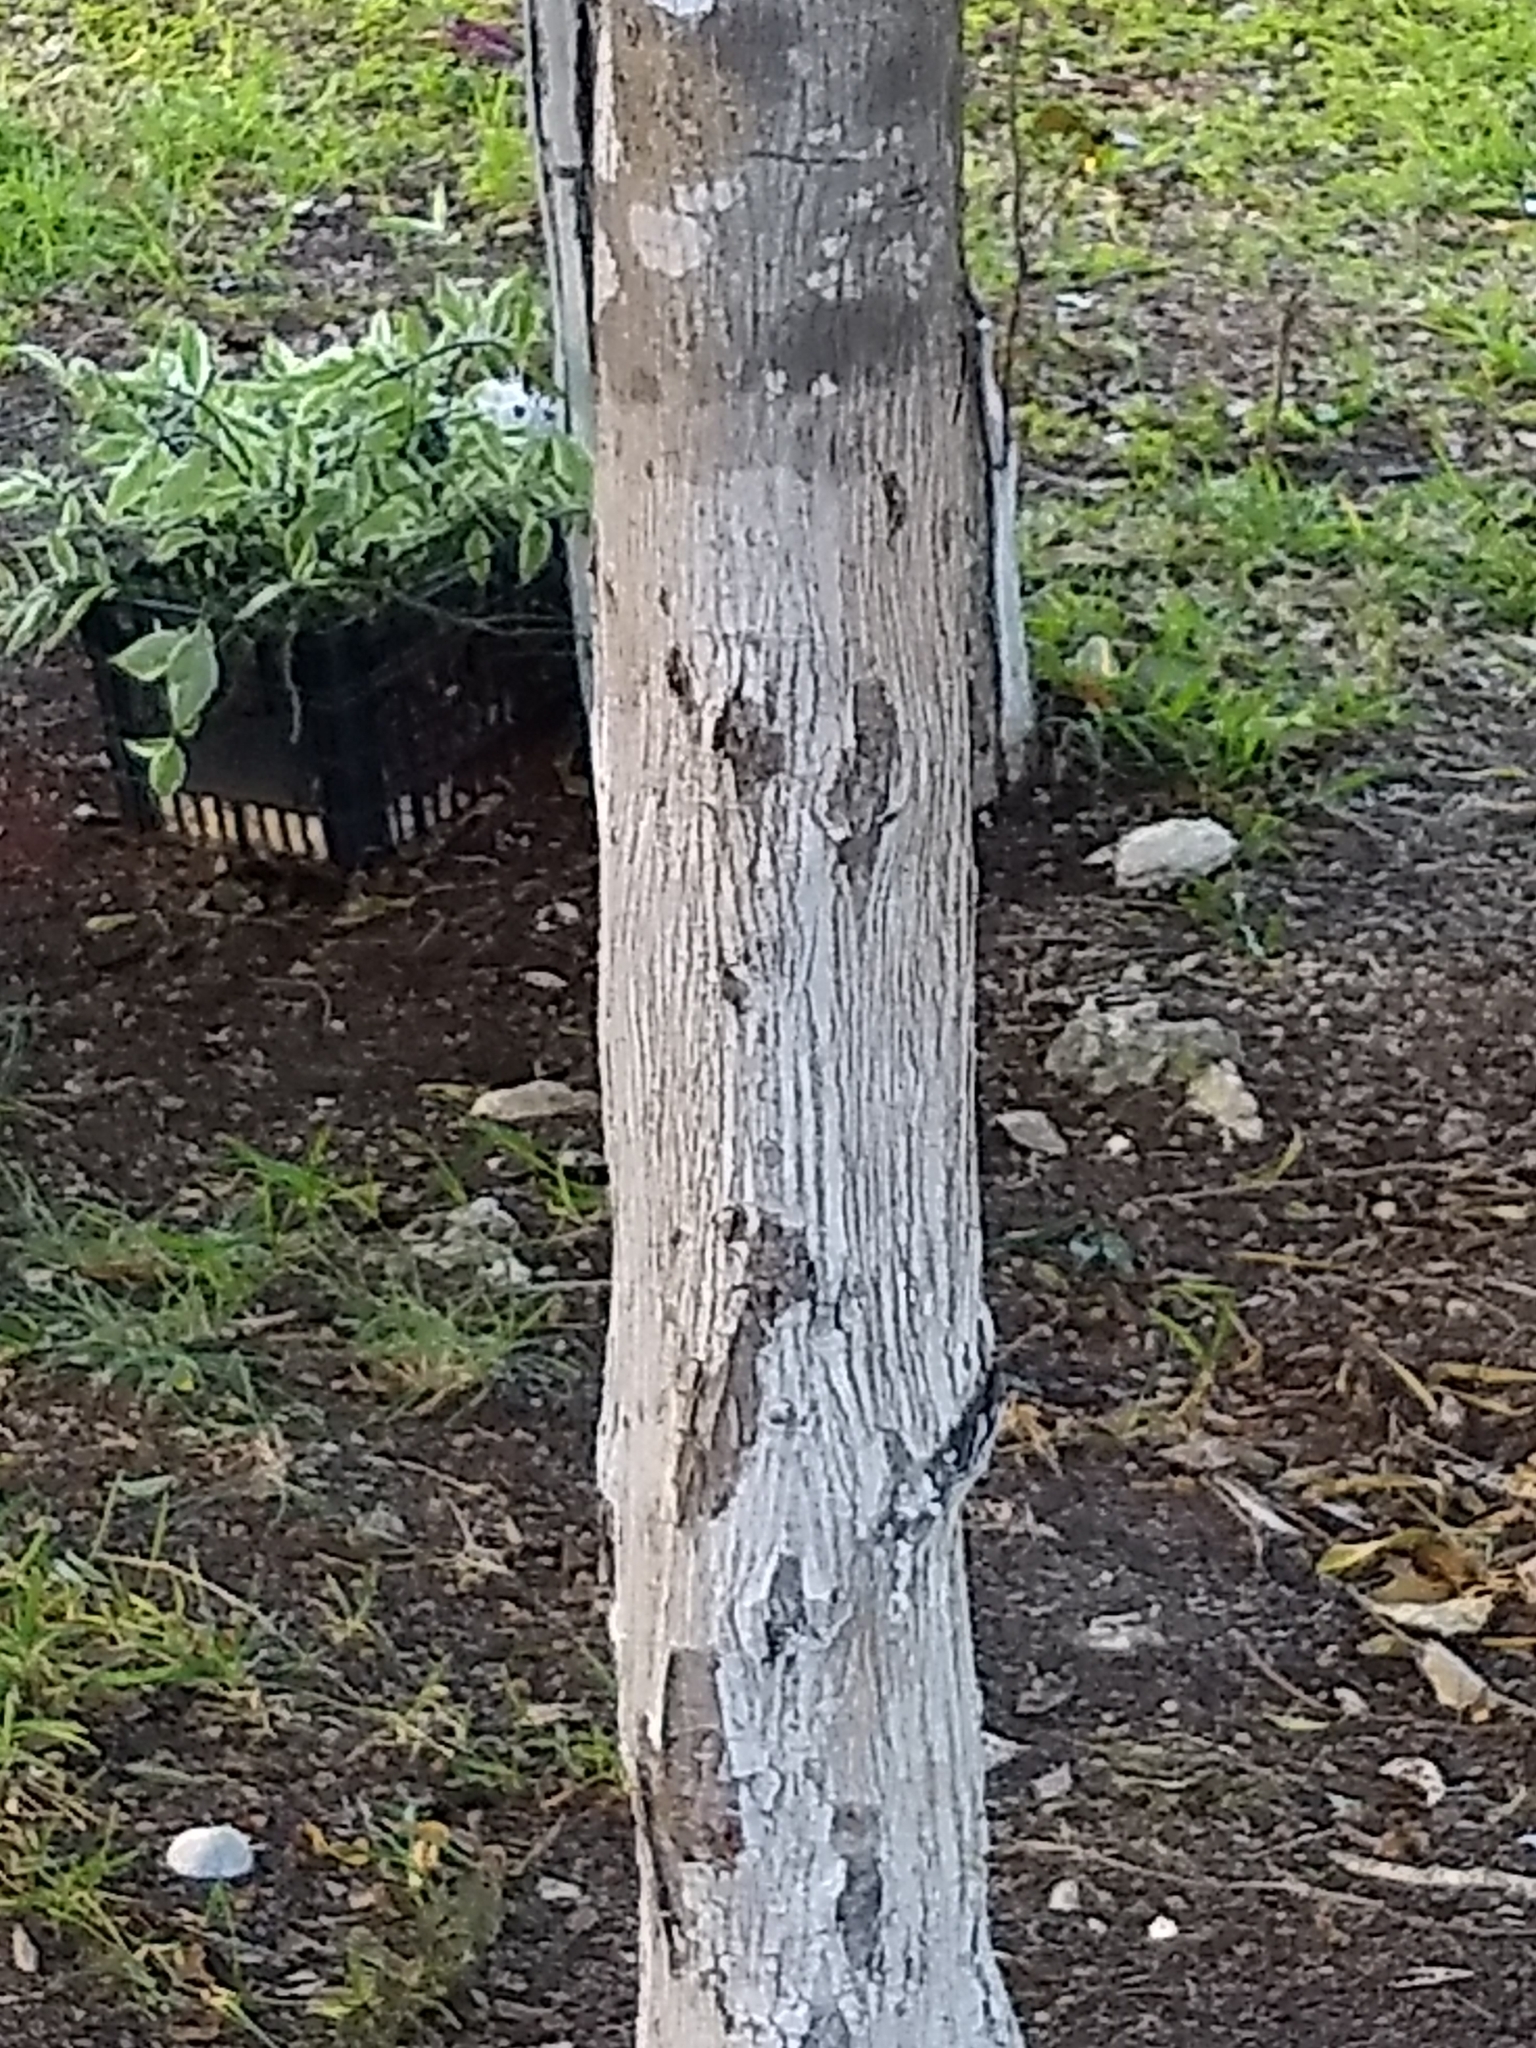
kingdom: Plantae
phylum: Tracheophyta
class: Magnoliopsida
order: Fabales
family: Fabaceae
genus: Lysiloma
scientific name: Lysiloma latisiliquum
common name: Wild tamarind
